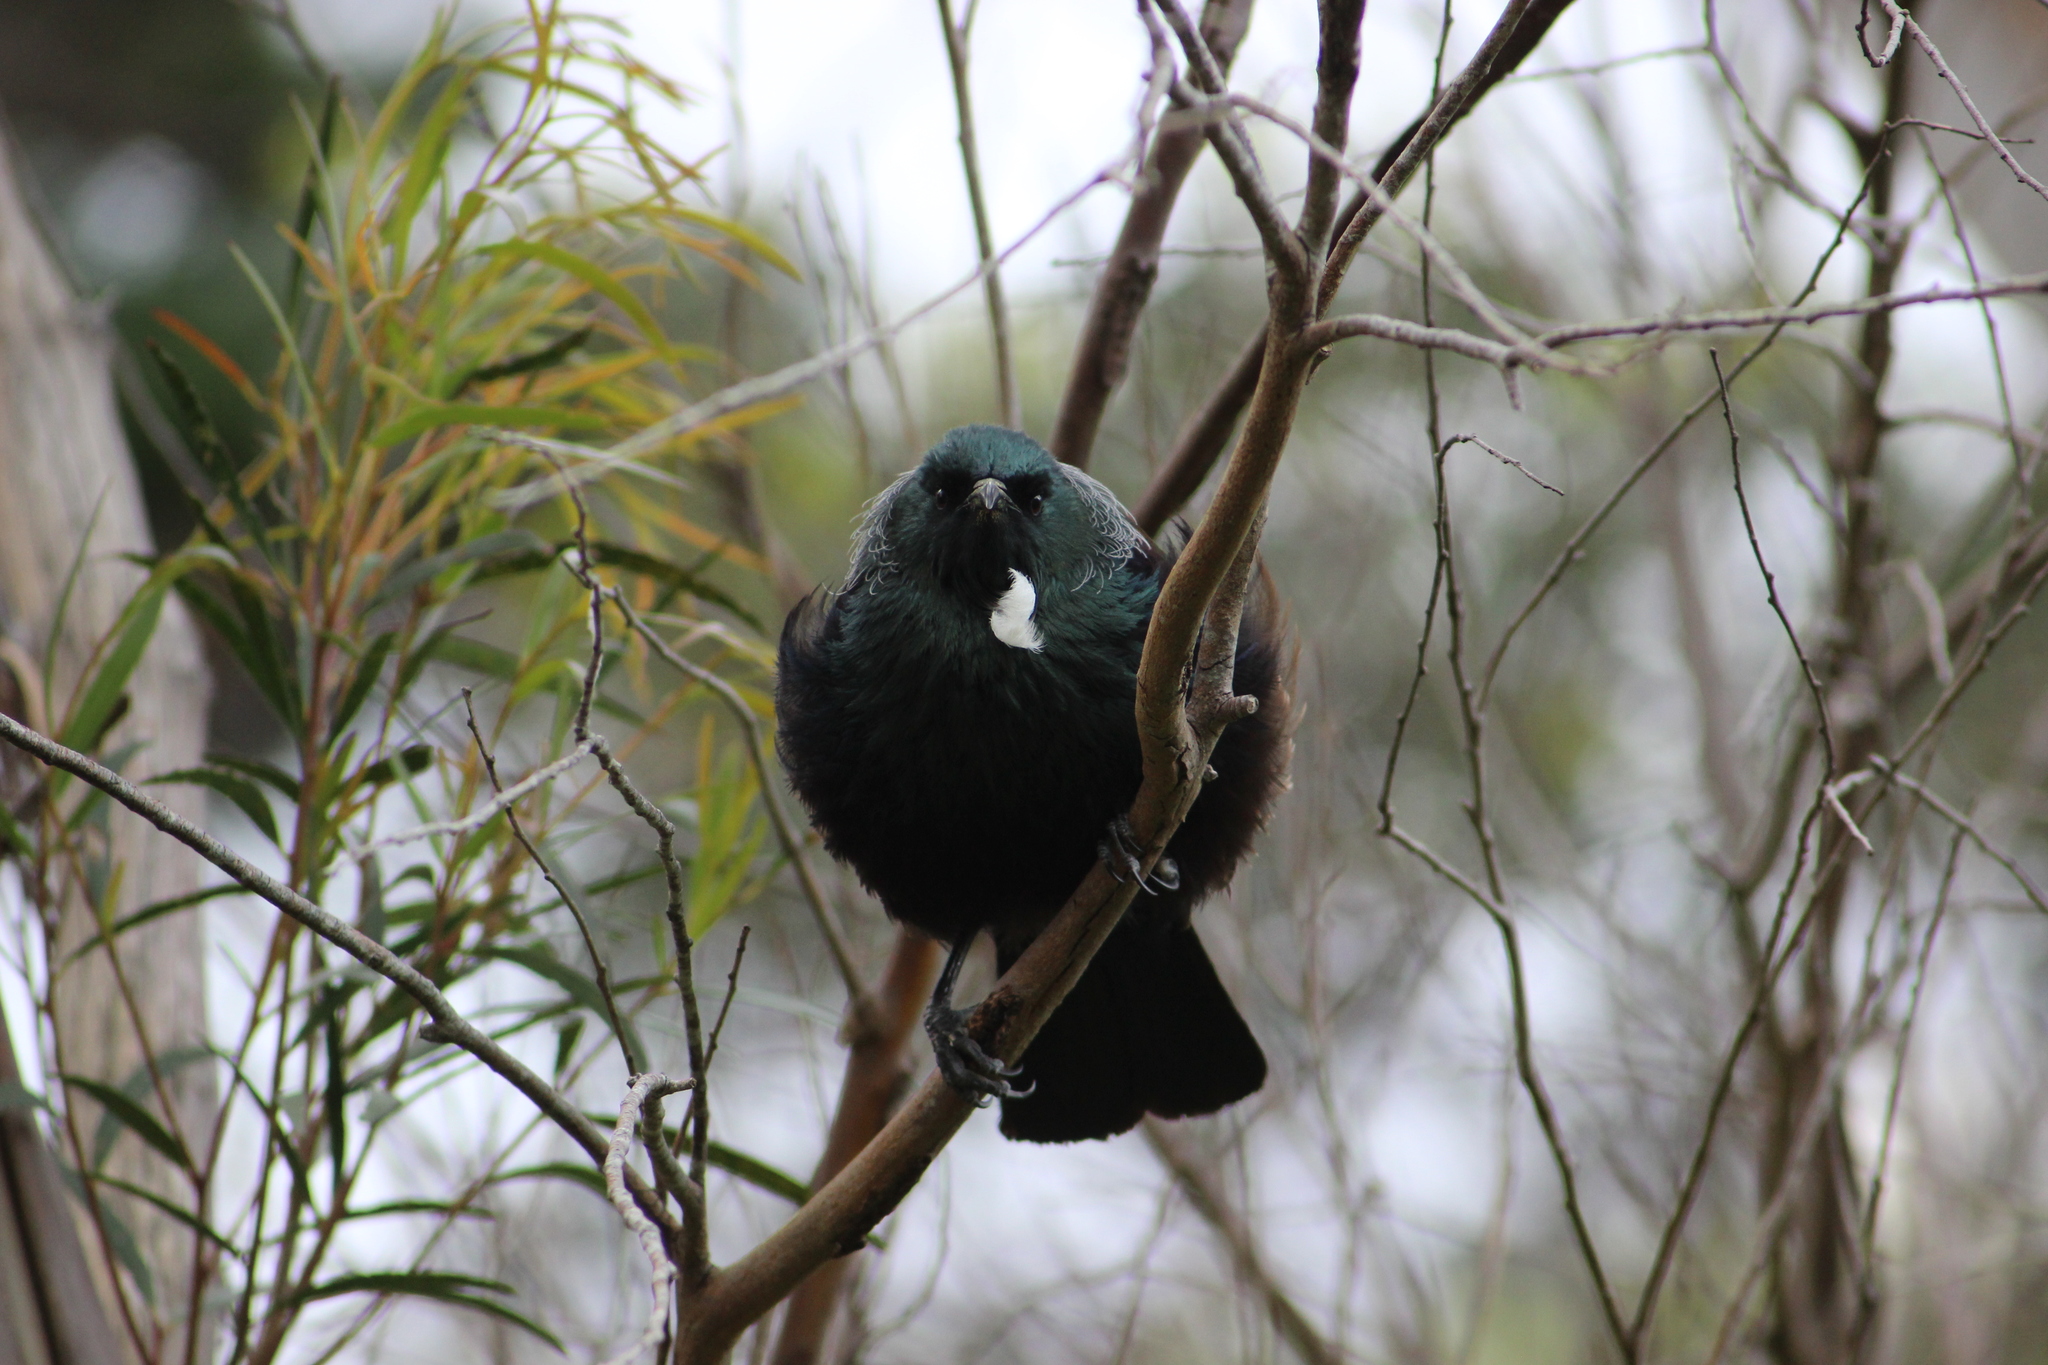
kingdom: Animalia
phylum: Chordata
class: Aves
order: Passeriformes
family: Meliphagidae
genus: Prosthemadera
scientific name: Prosthemadera novaeseelandiae
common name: Tui
